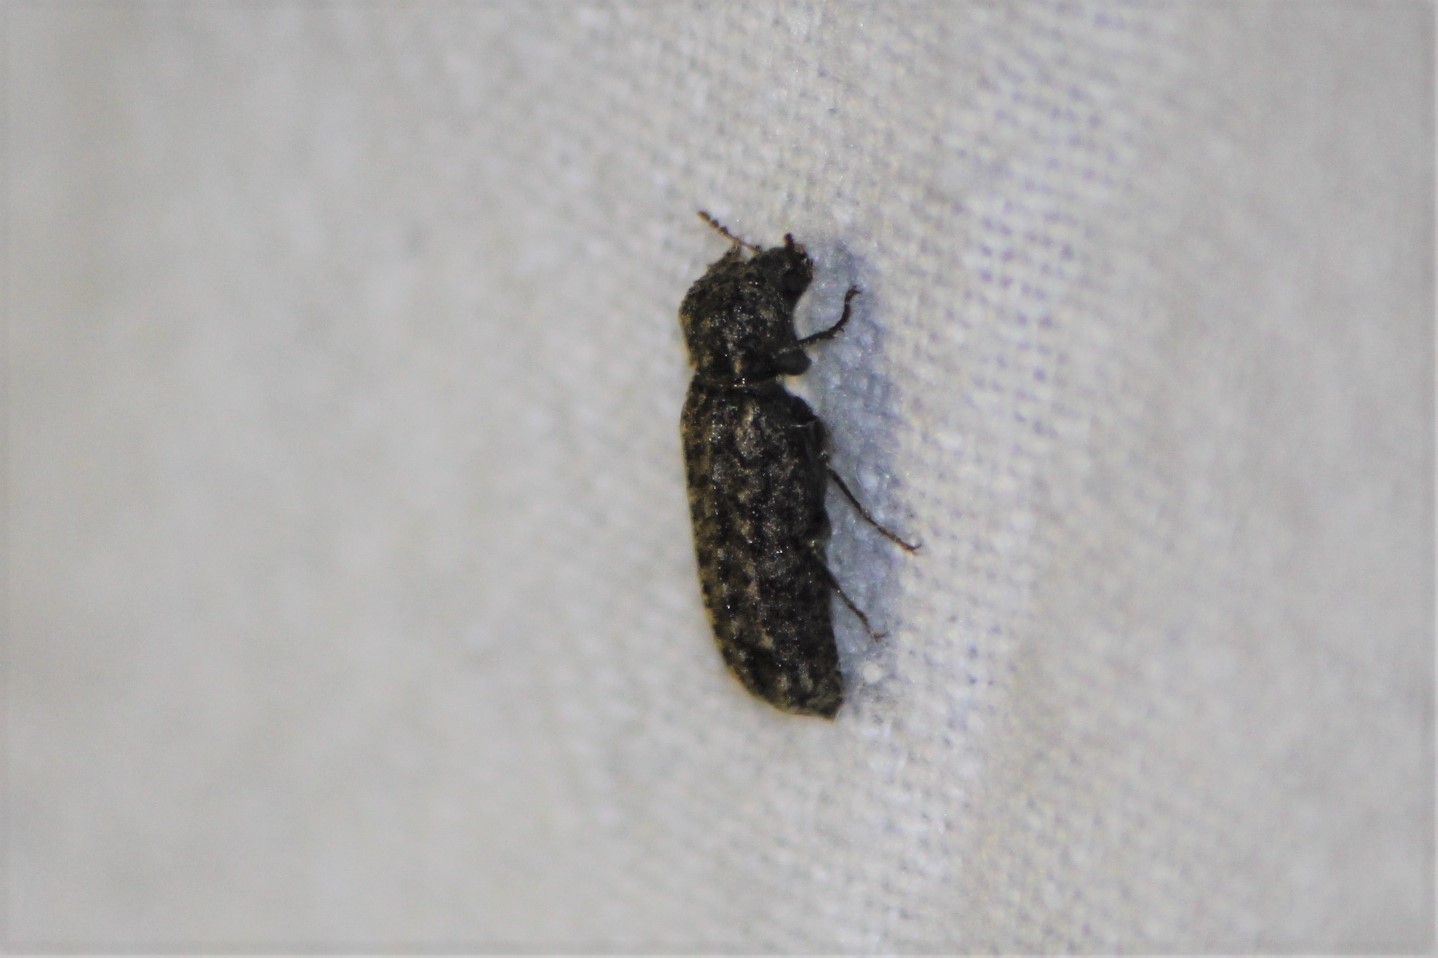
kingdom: Animalia
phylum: Arthropoda
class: Insecta
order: Coleoptera
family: Bostrichidae
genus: Lichenophanes
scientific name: Lichenophanes bicornis
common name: Two-horned powder-post beetle
